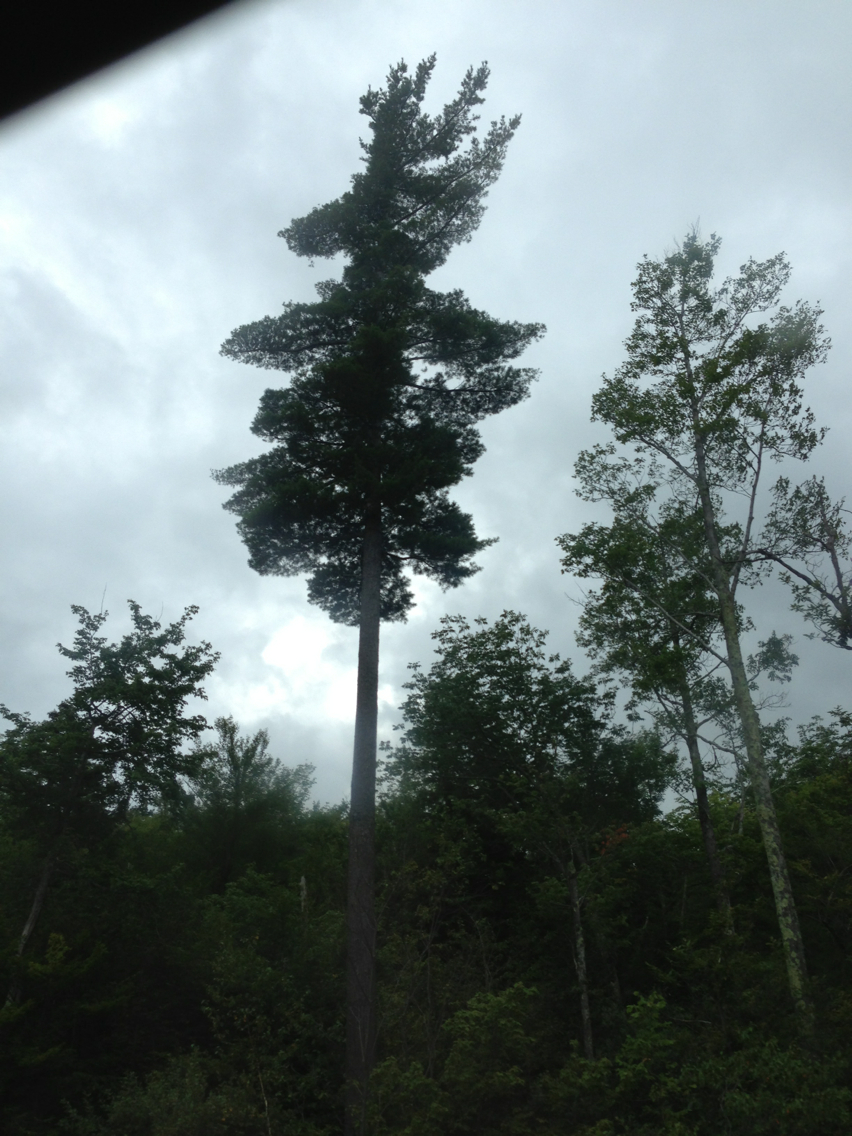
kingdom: Plantae
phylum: Tracheophyta
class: Pinopsida
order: Pinales
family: Pinaceae
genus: Pinus
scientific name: Pinus strobus
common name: Weymouth pine
